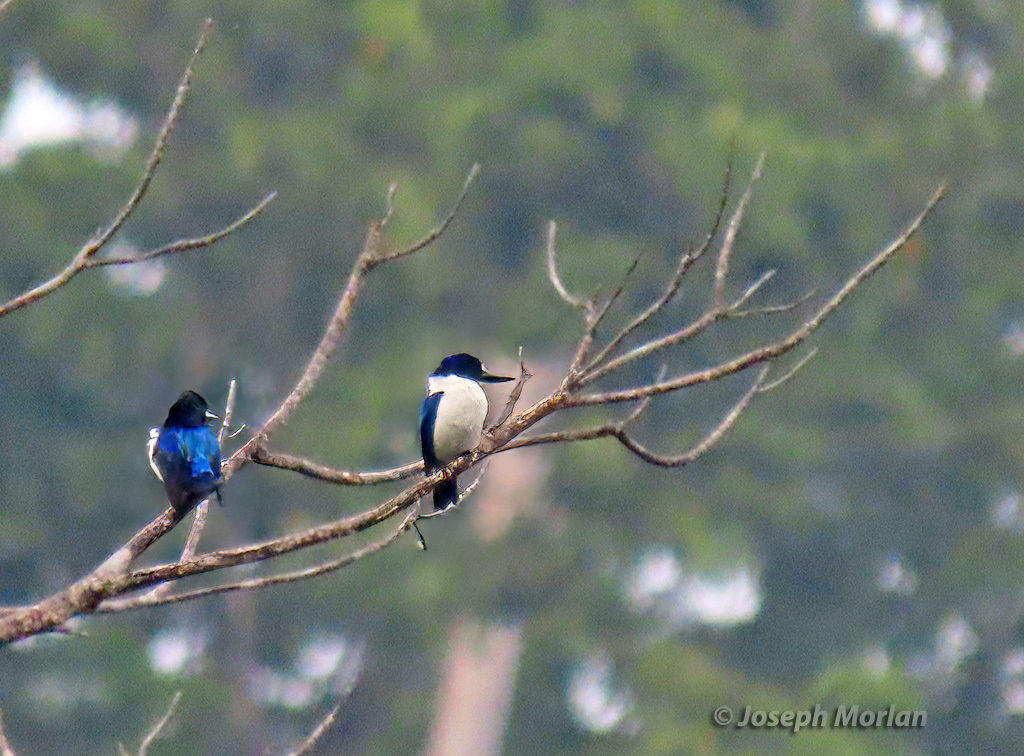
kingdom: Animalia
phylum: Chordata
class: Aves
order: Coraciiformes
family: Alcedinidae
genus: Todiramphus
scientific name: Todiramphus diops
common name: Blue-and-white kingfisher
